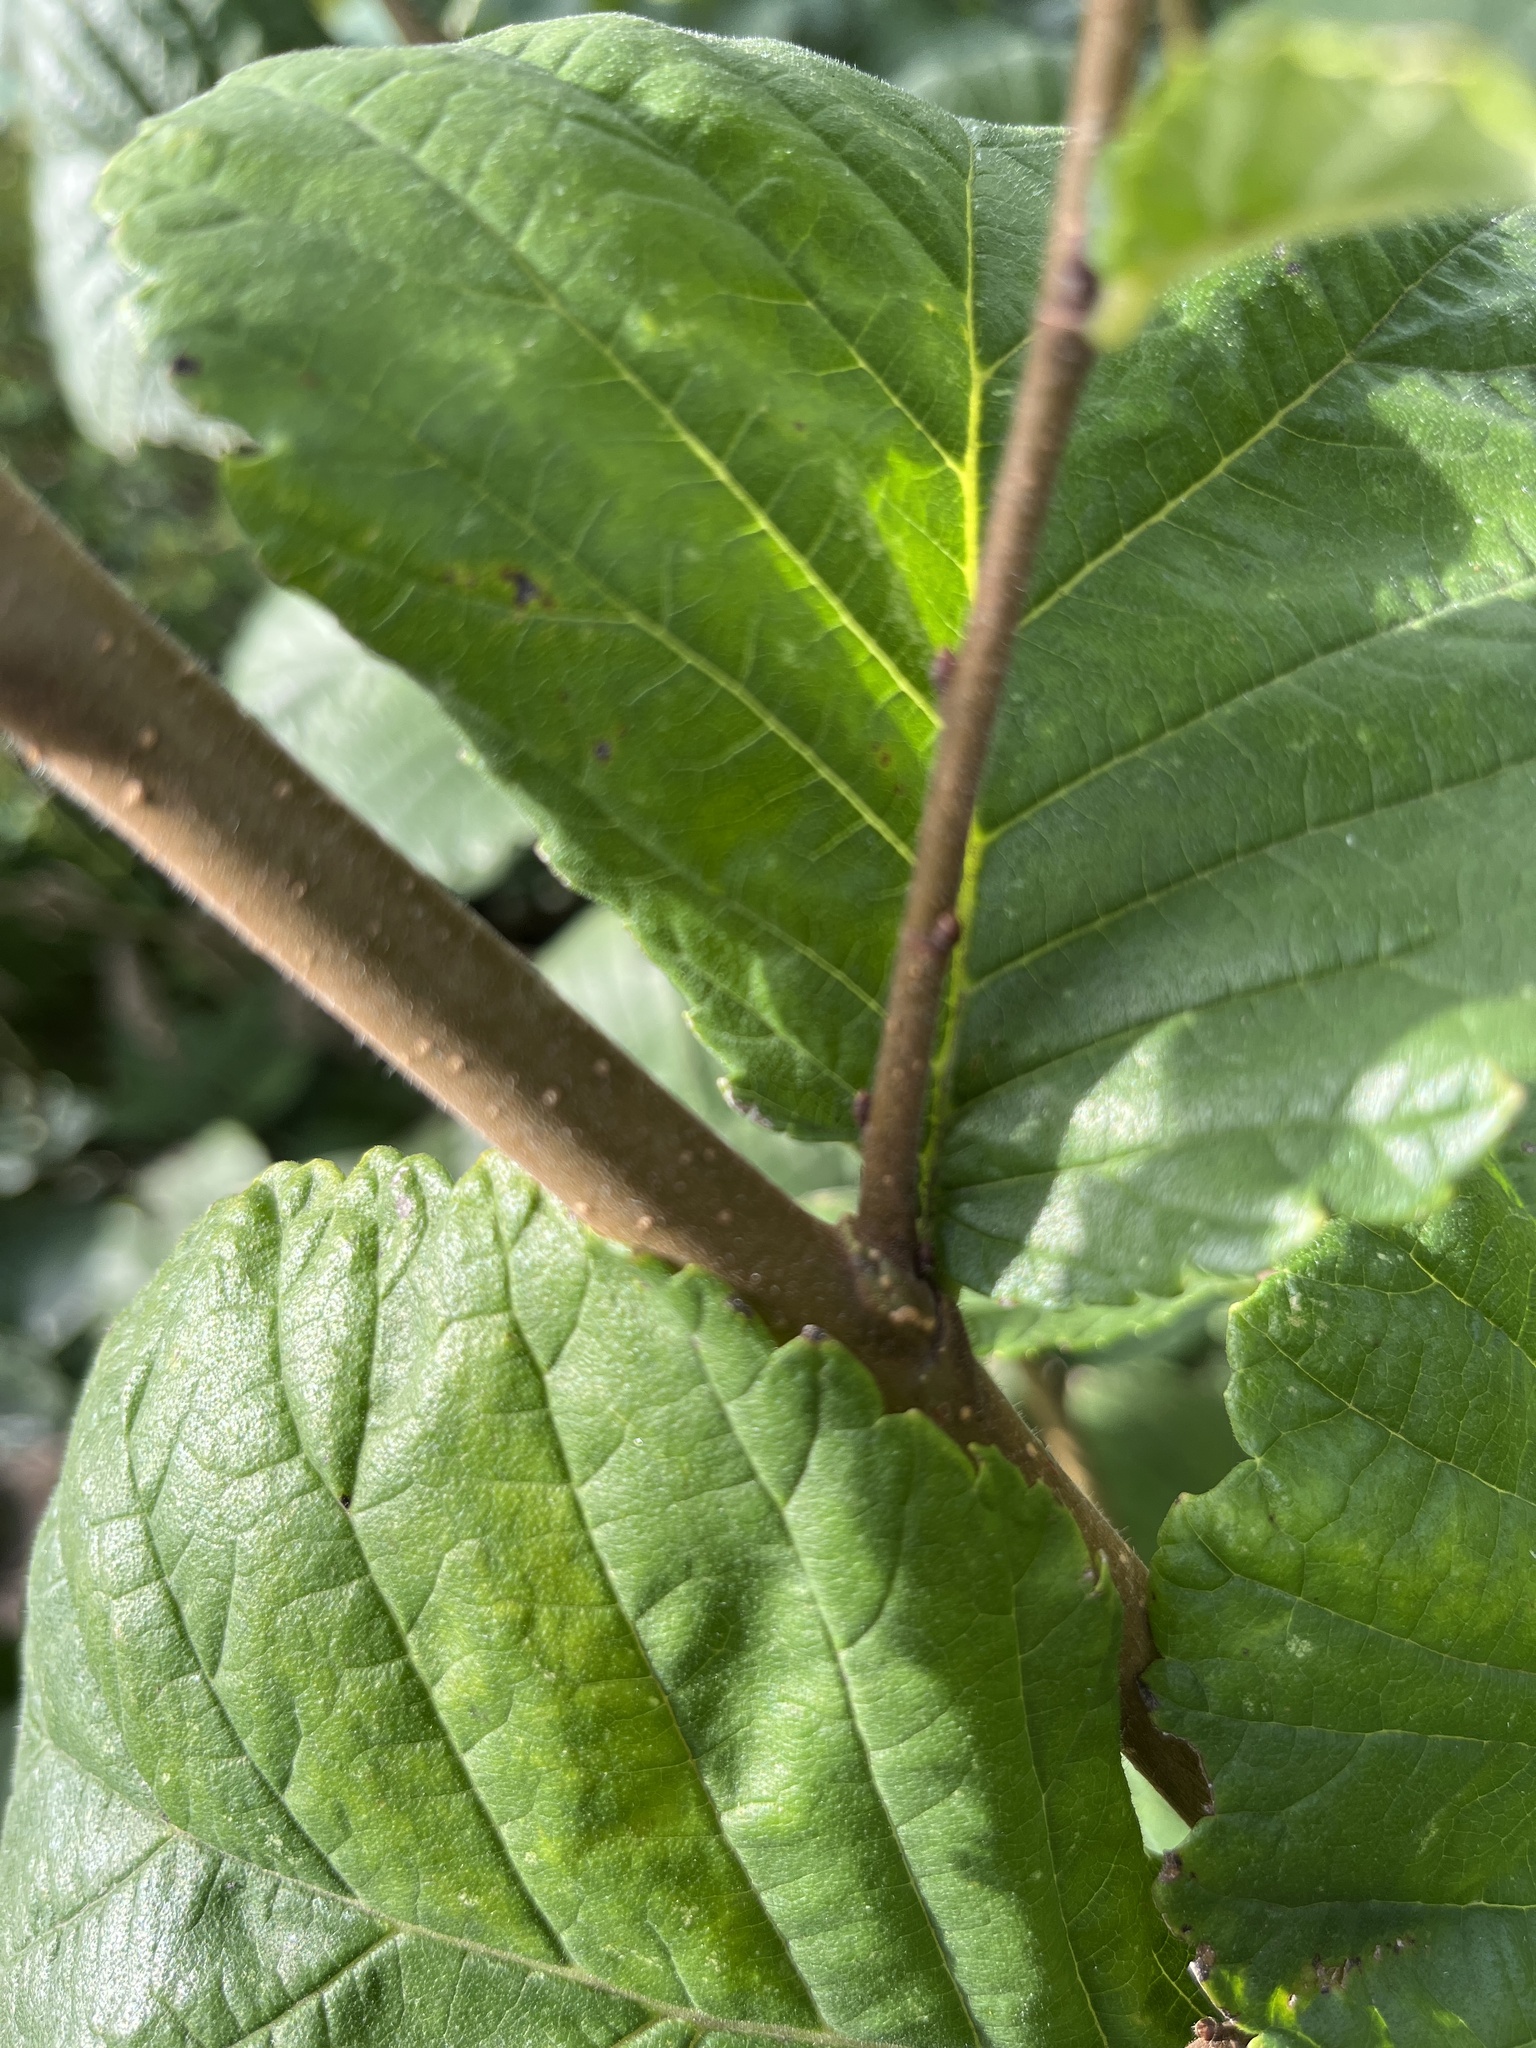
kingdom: Plantae
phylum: Tracheophyta
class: Magnoliopsida
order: Fagales
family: Betulaceae
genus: Alnus
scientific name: Alnus glutinosa
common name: Black alder
